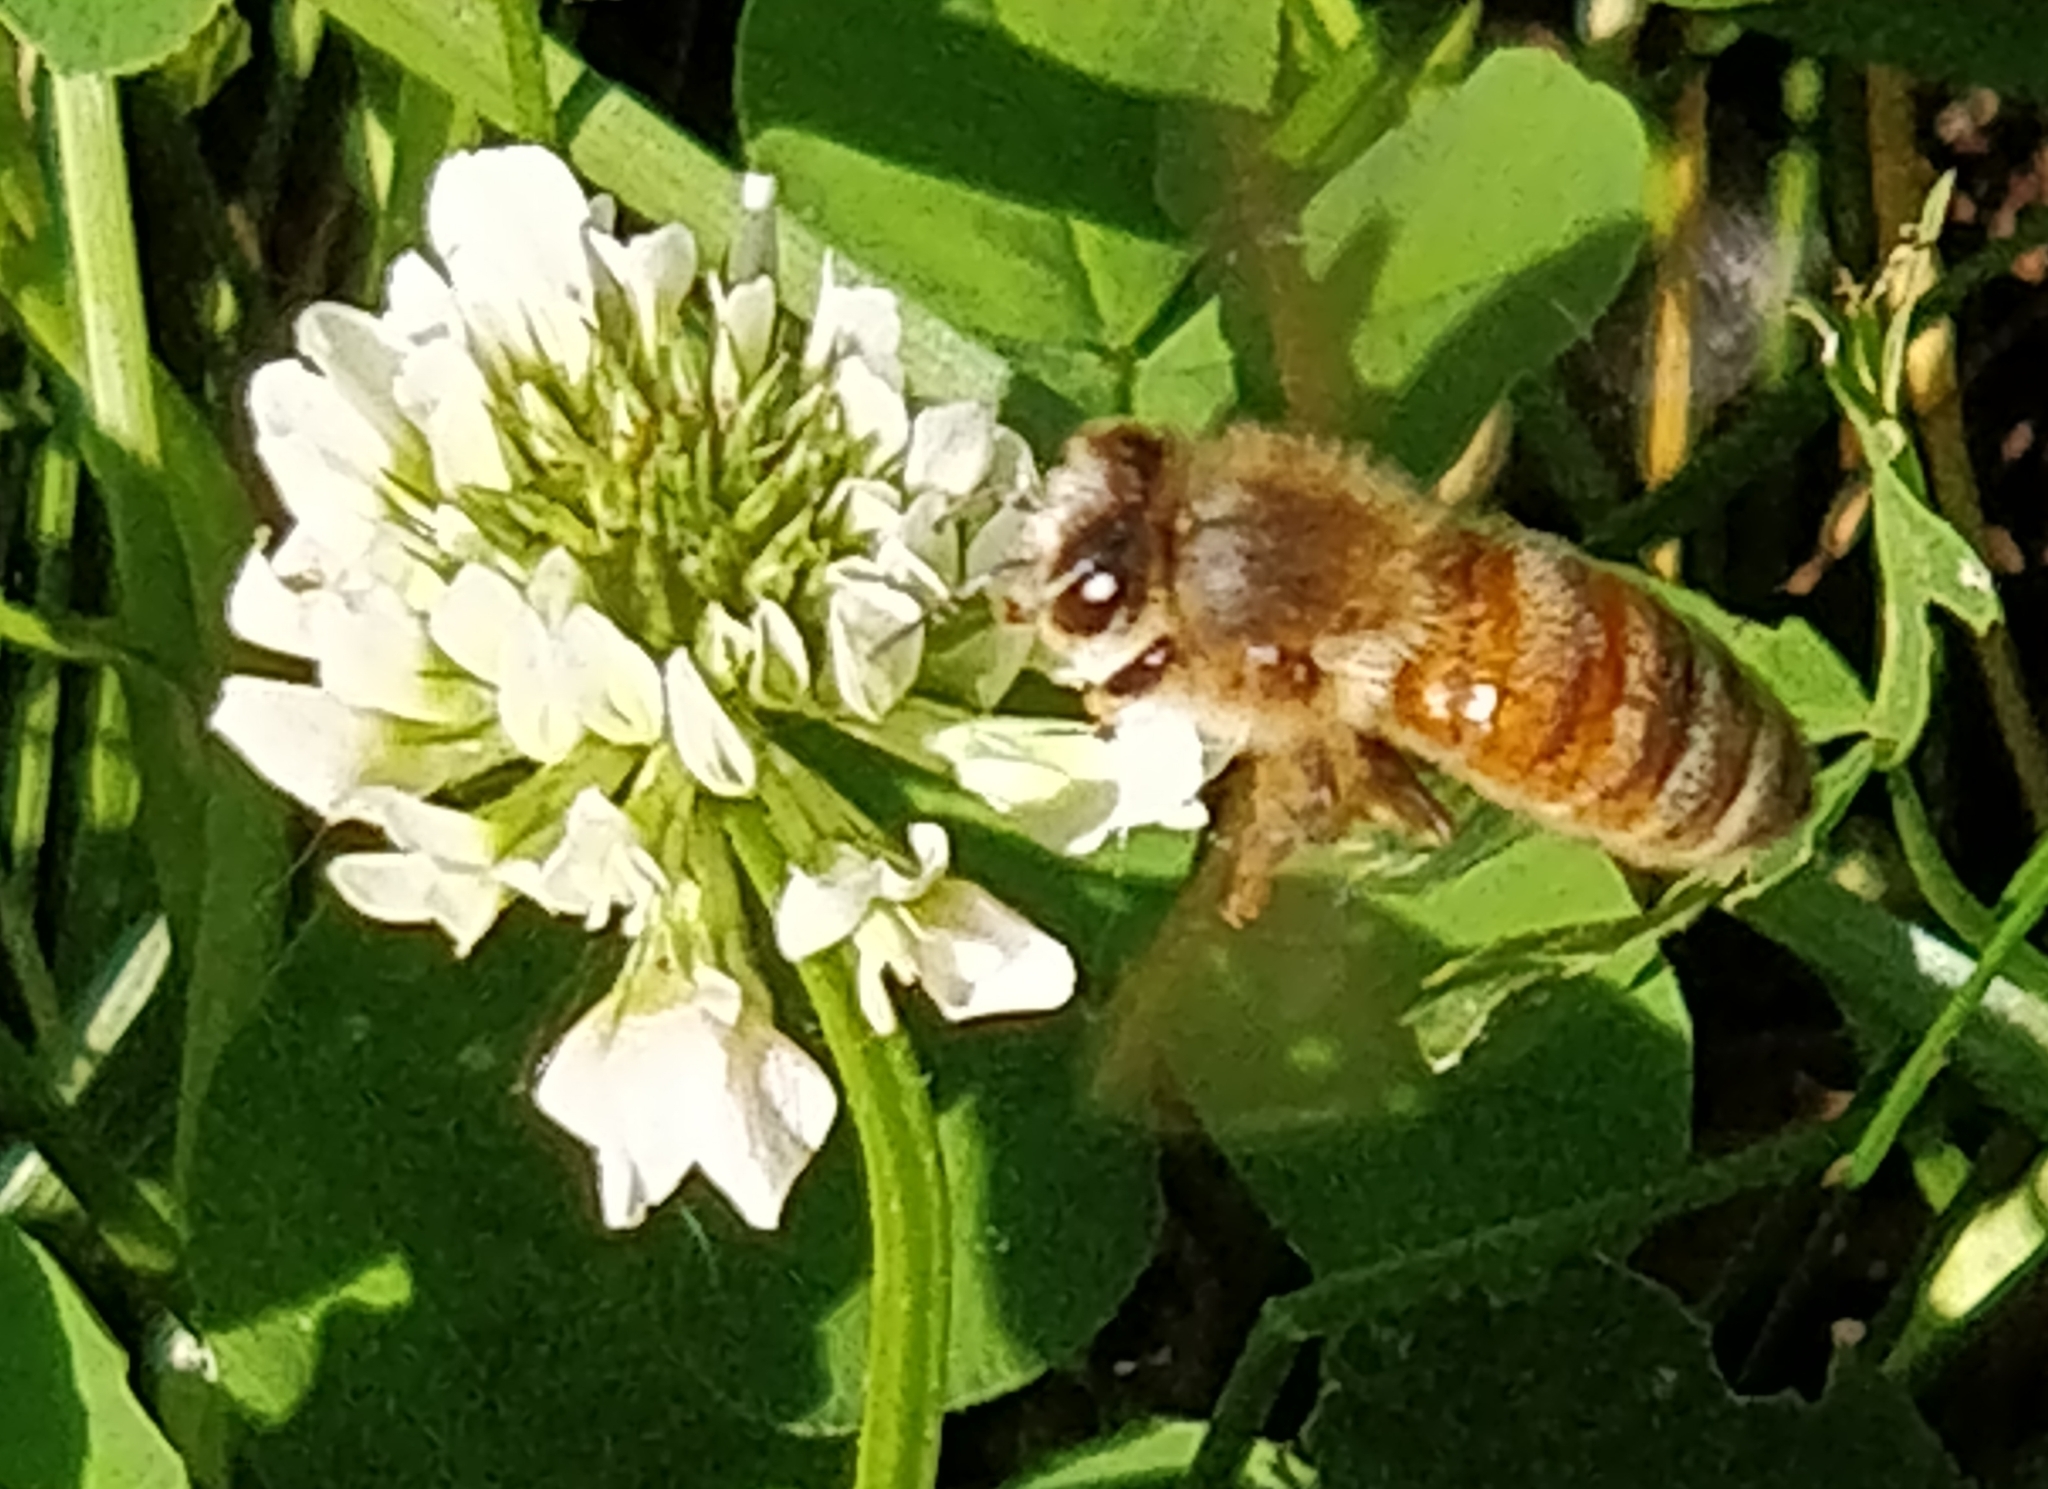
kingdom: Animalia
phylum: Arthropoda
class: Insecta
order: Hymenoptera
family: Apidae
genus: Apis
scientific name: Apis mellifera
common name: Honey bee
